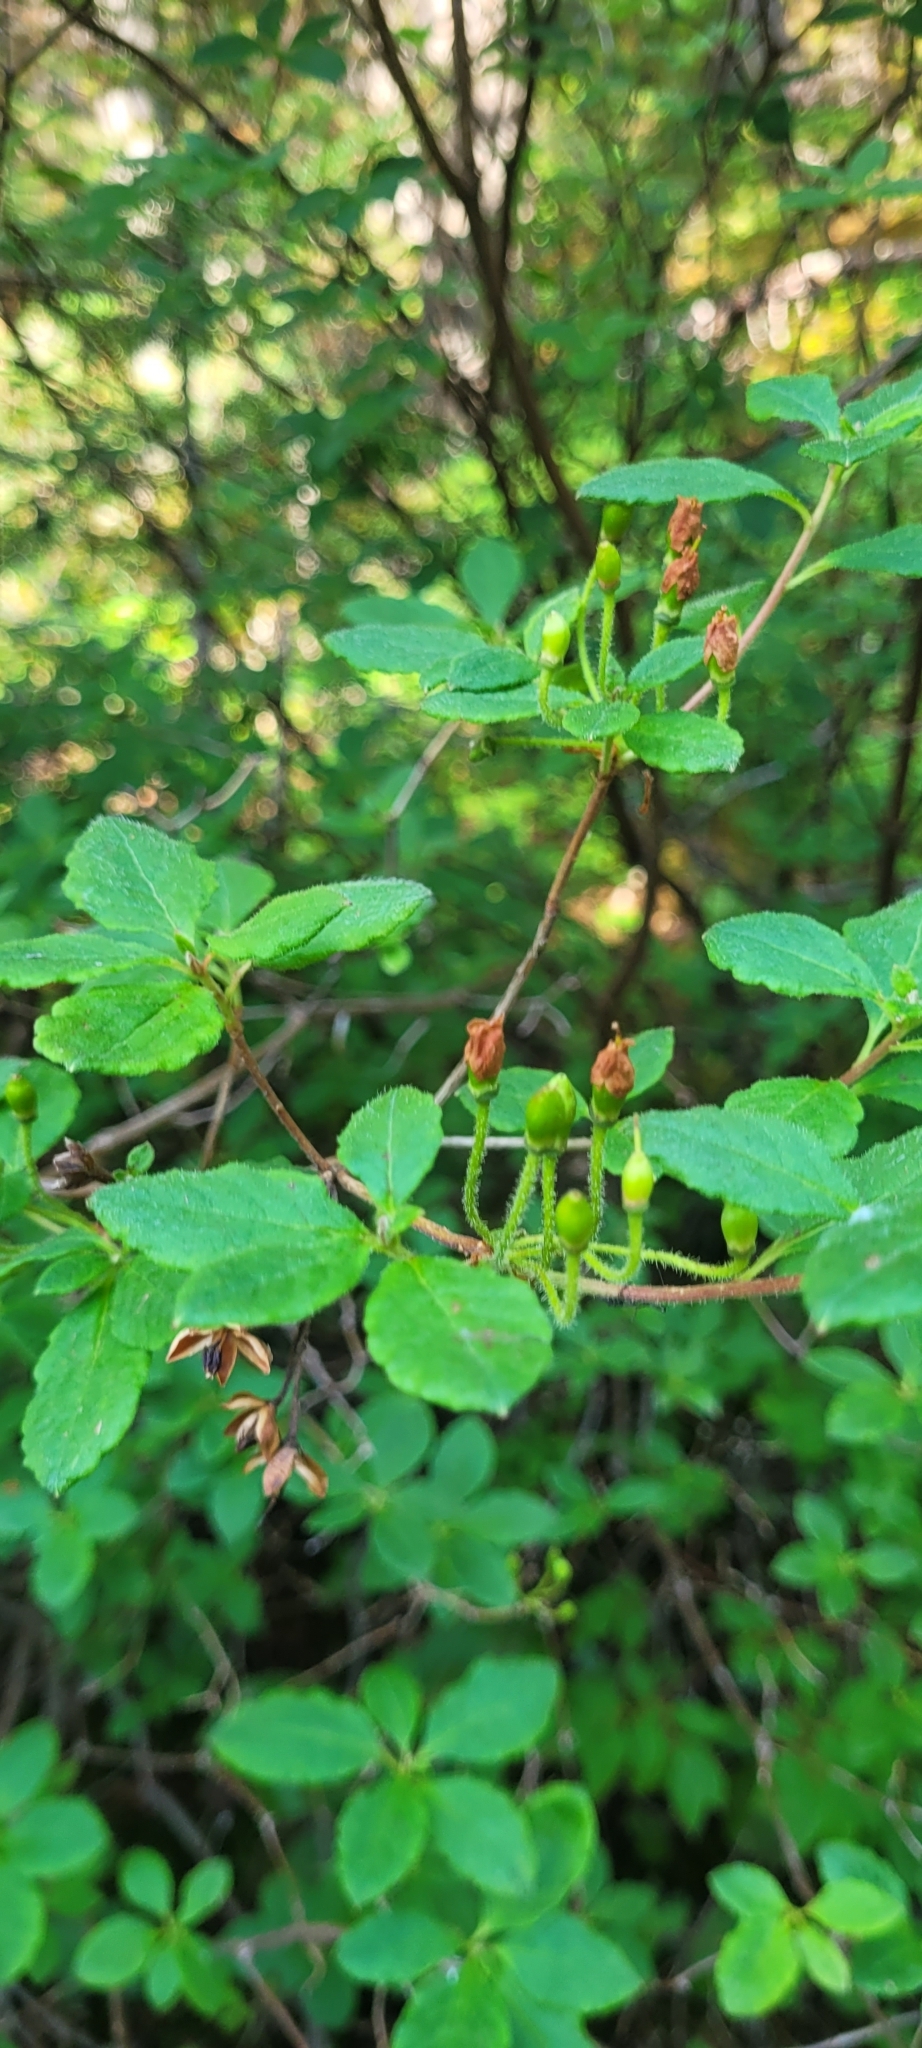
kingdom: Plantae
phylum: Tracheophyta
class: Magnoliopsida
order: Ericales
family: Ericaceae
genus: Rhododendron
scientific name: Rhododendron menziesii
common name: Pacific menziesia
